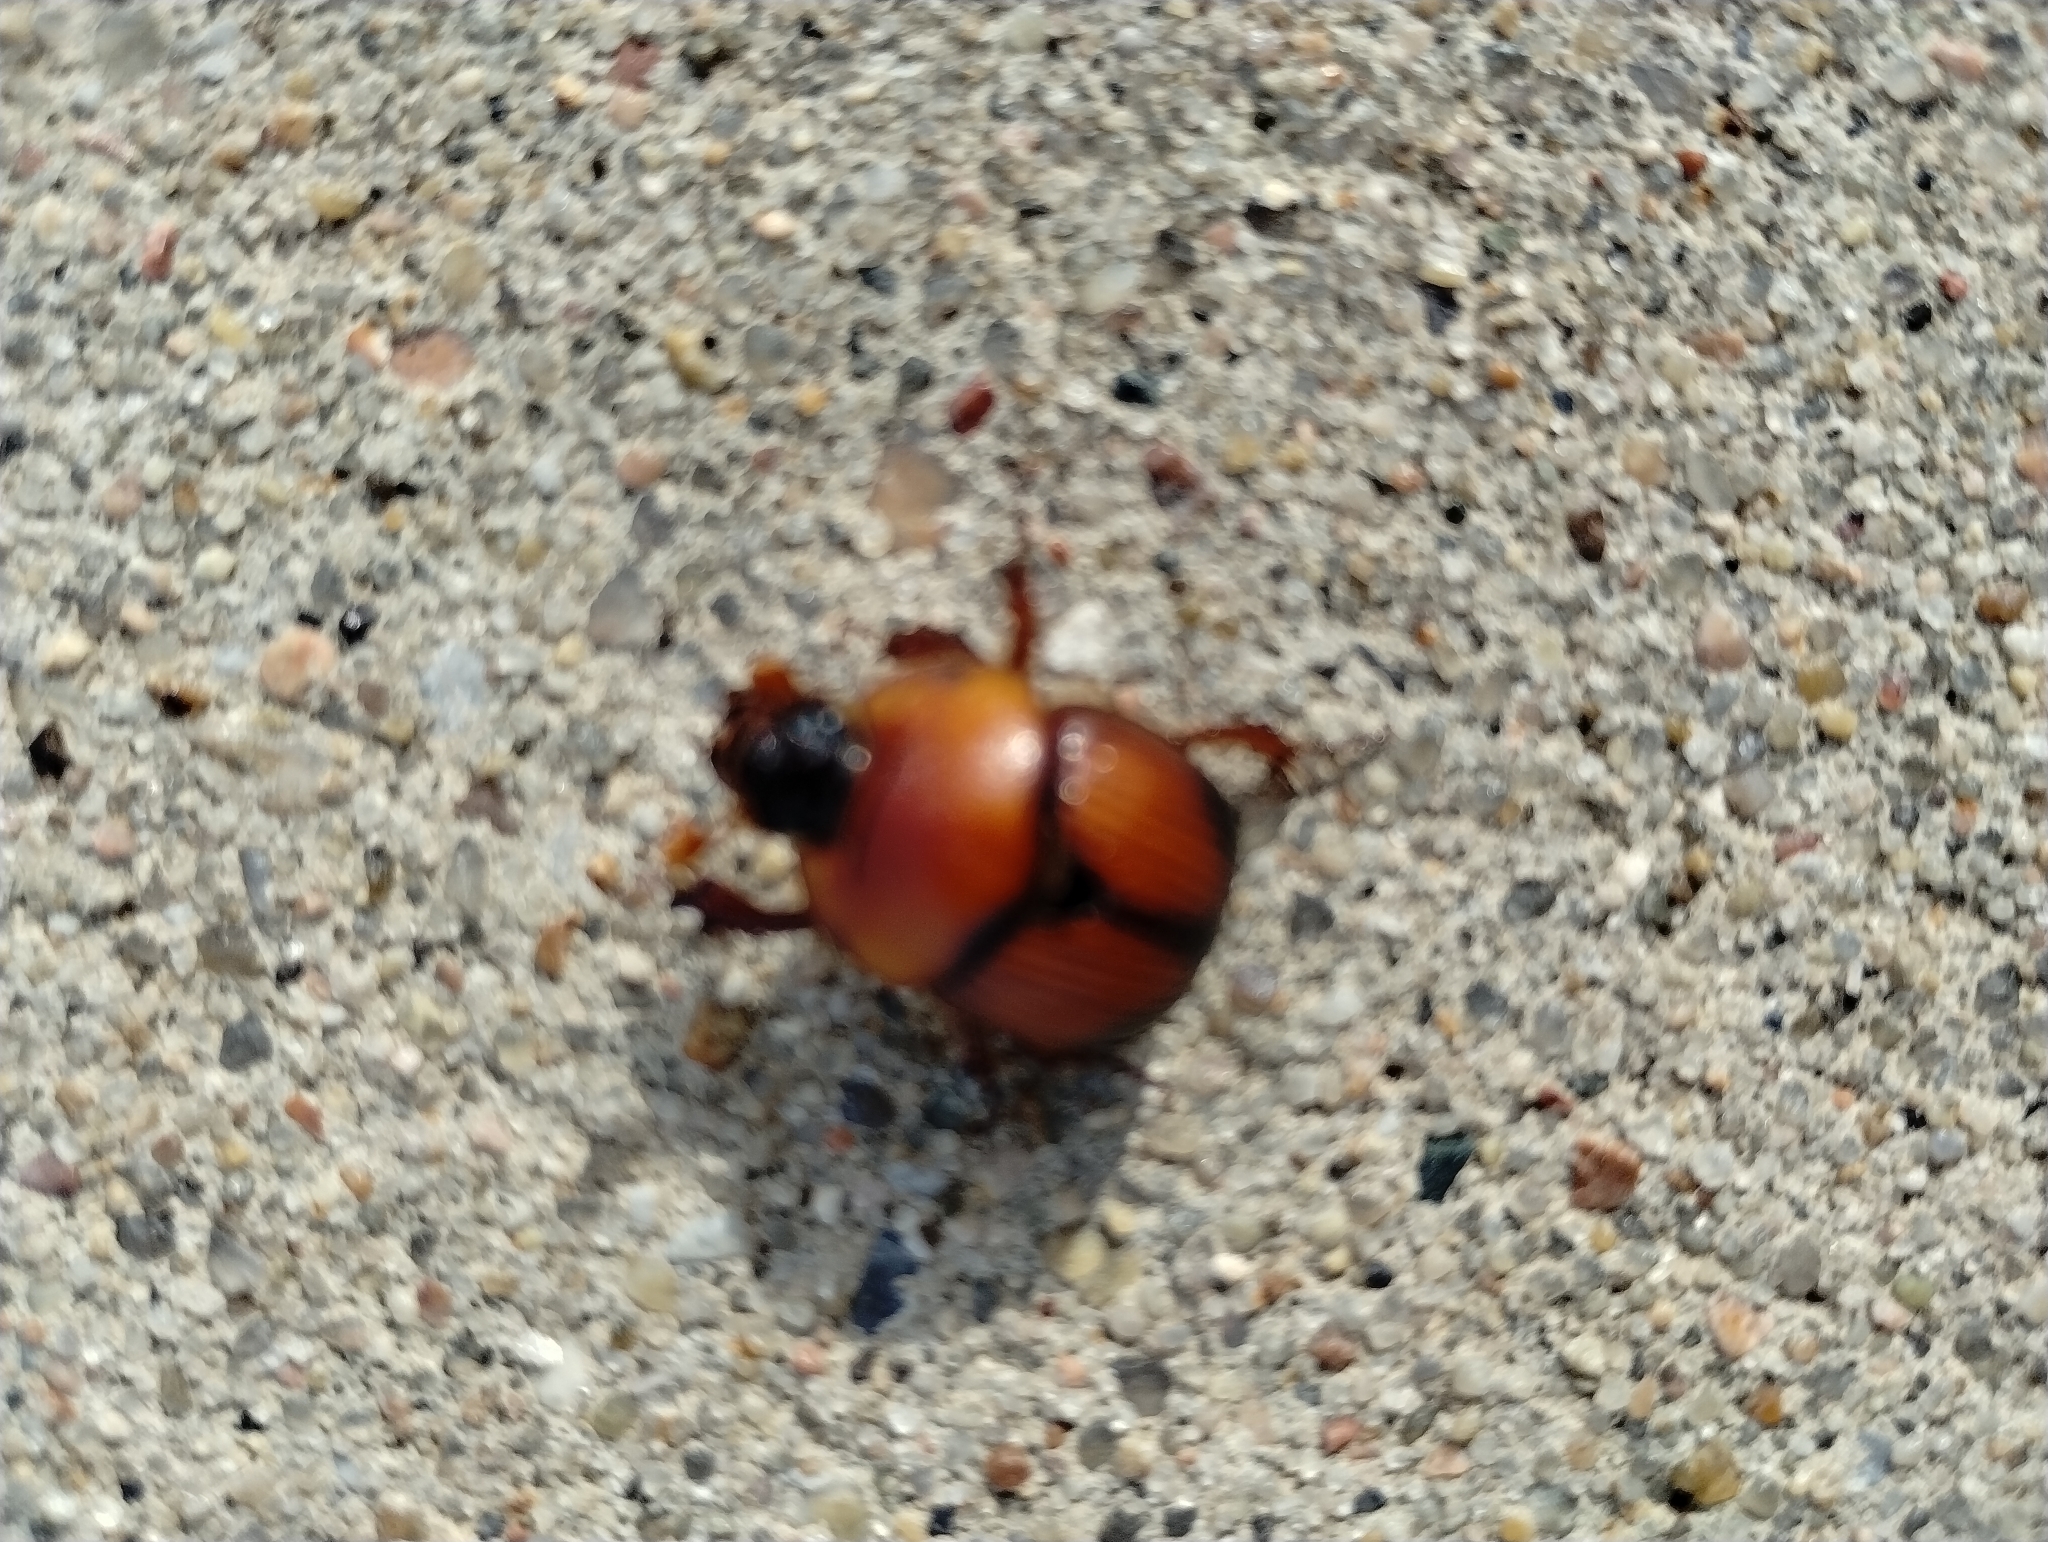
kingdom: Animalia
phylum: Arthropoda
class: Insecta
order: Coleoptera
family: Geotrupidae
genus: Bolbocerosoma
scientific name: Bolbocerosoma bruneri
